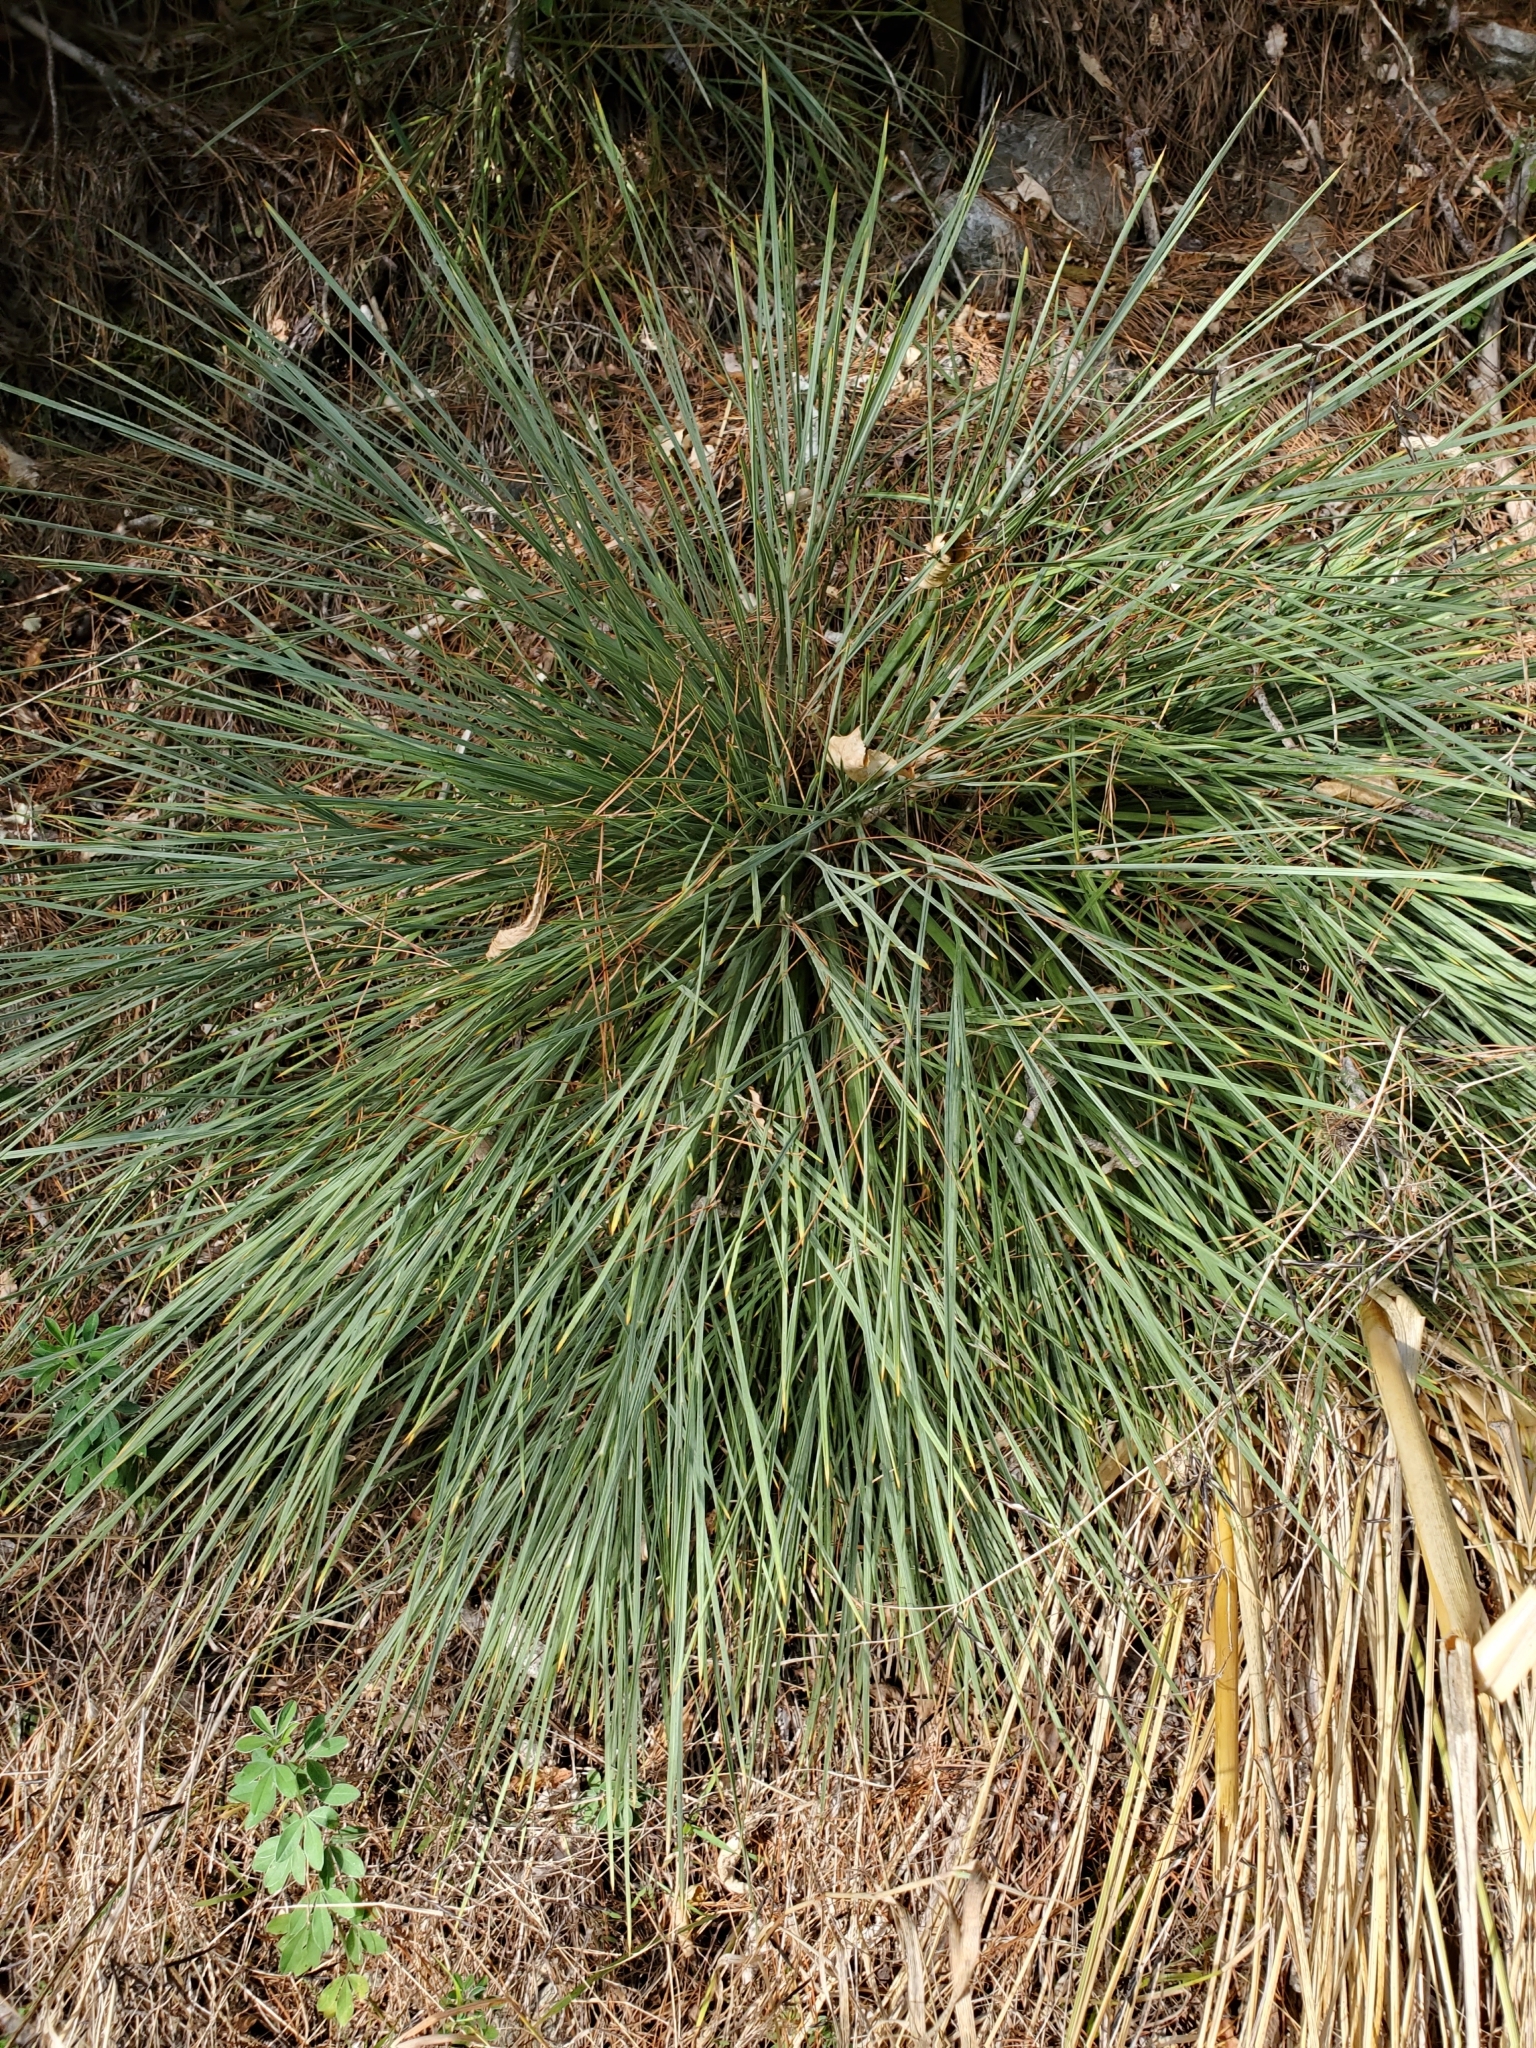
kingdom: Plantae
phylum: Tracheophyta
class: Magnoliopsida
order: Apiales
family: Apiaceae
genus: Aciphylla
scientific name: Aciphylla squarrosa
